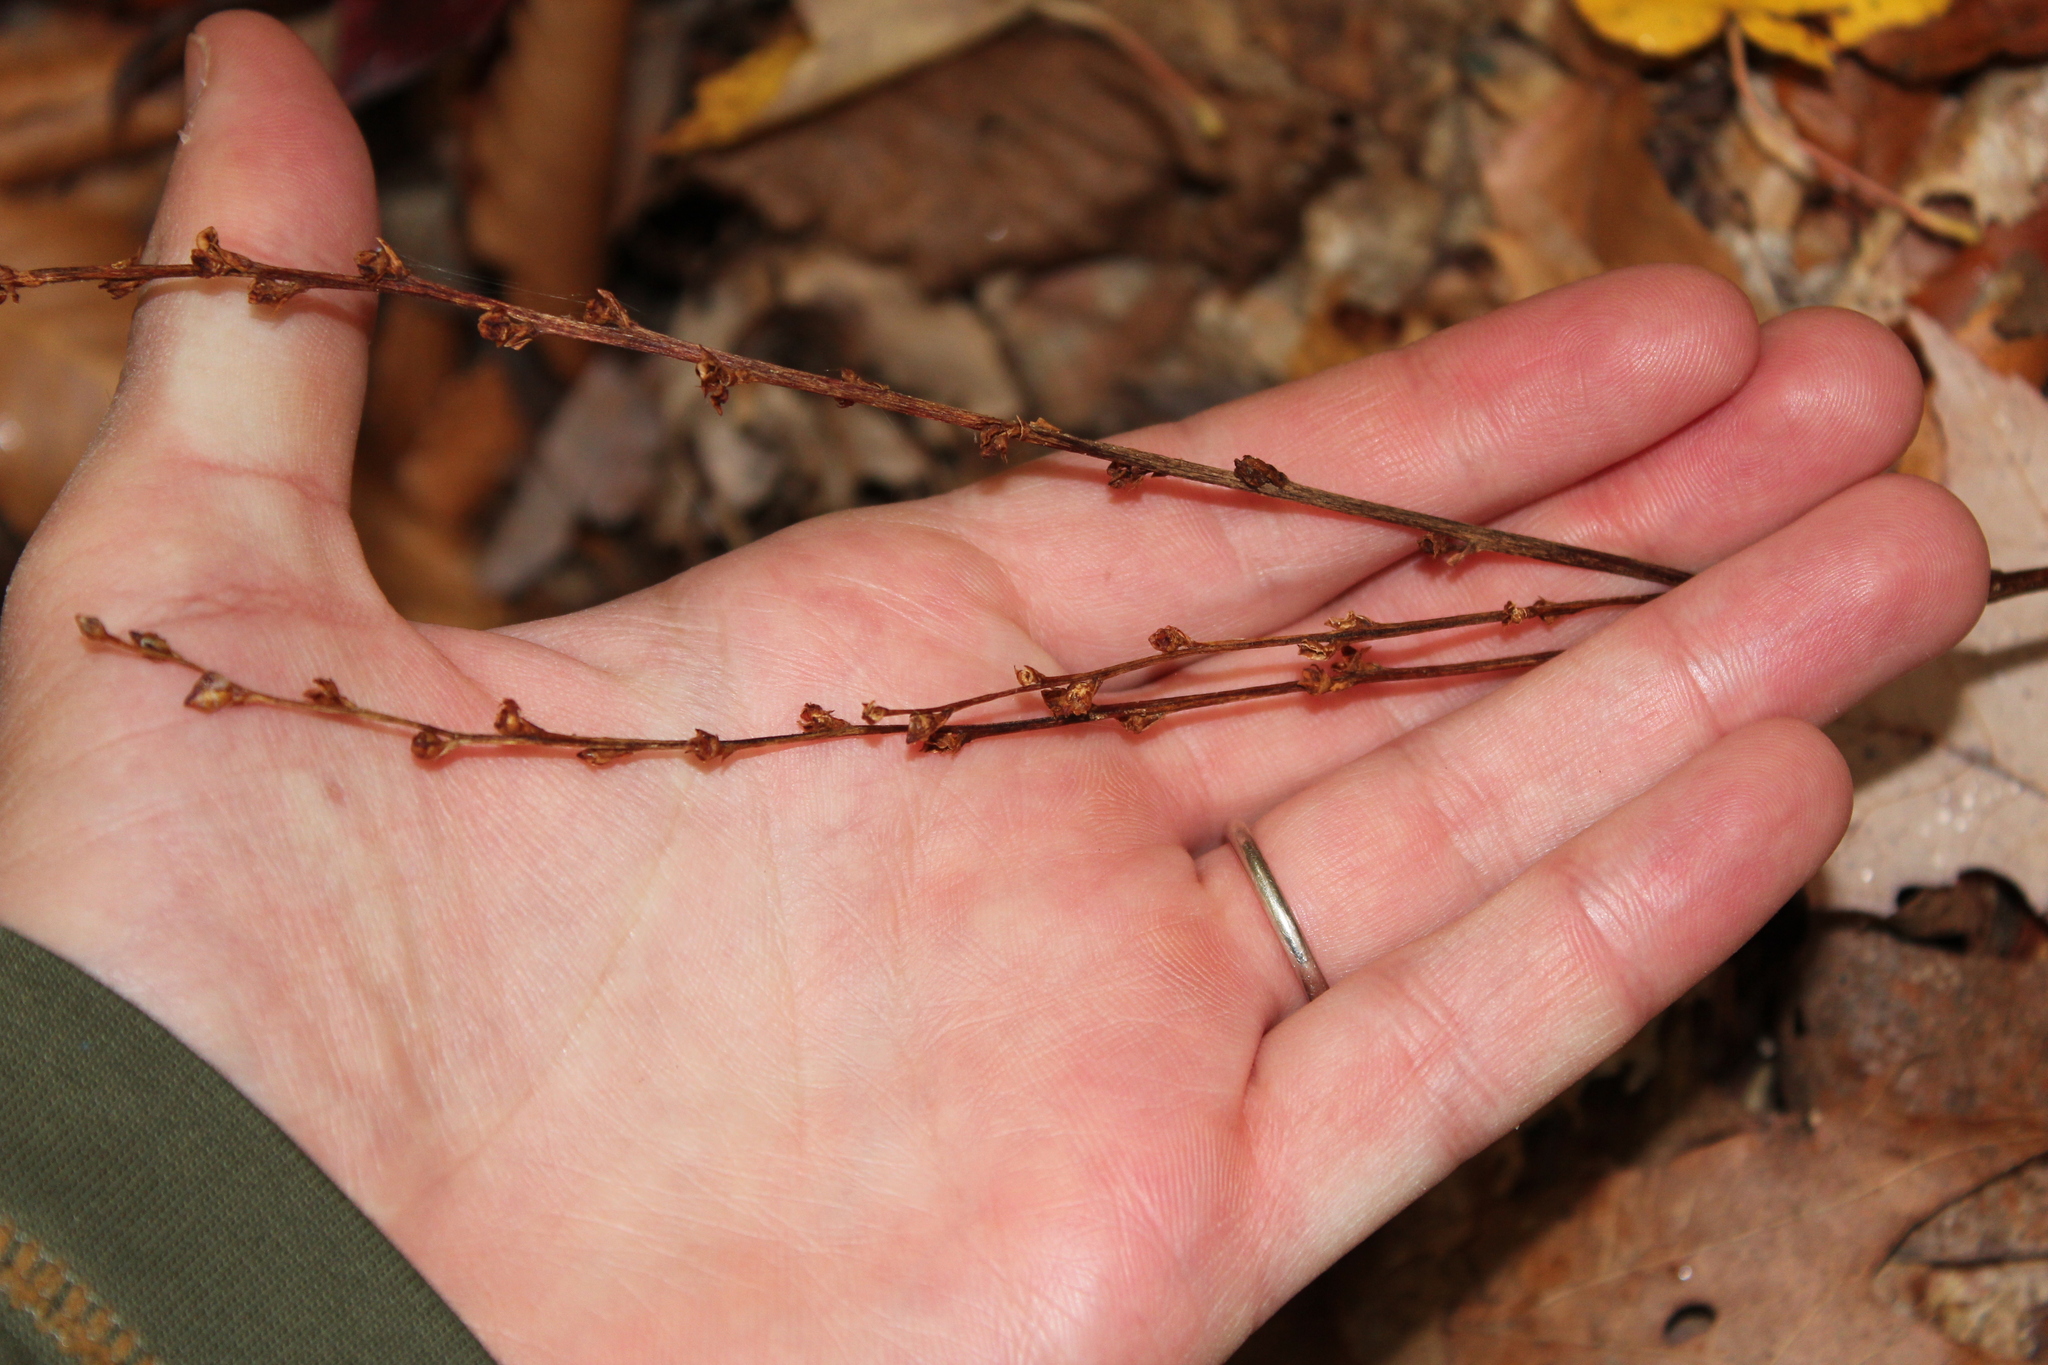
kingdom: Plantae
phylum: Tracheophyta
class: Magnoliopsida
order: Lamiales
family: Orobanchaceae
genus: Epifagus
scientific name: Epifagus virginiana
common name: Beechdrops
